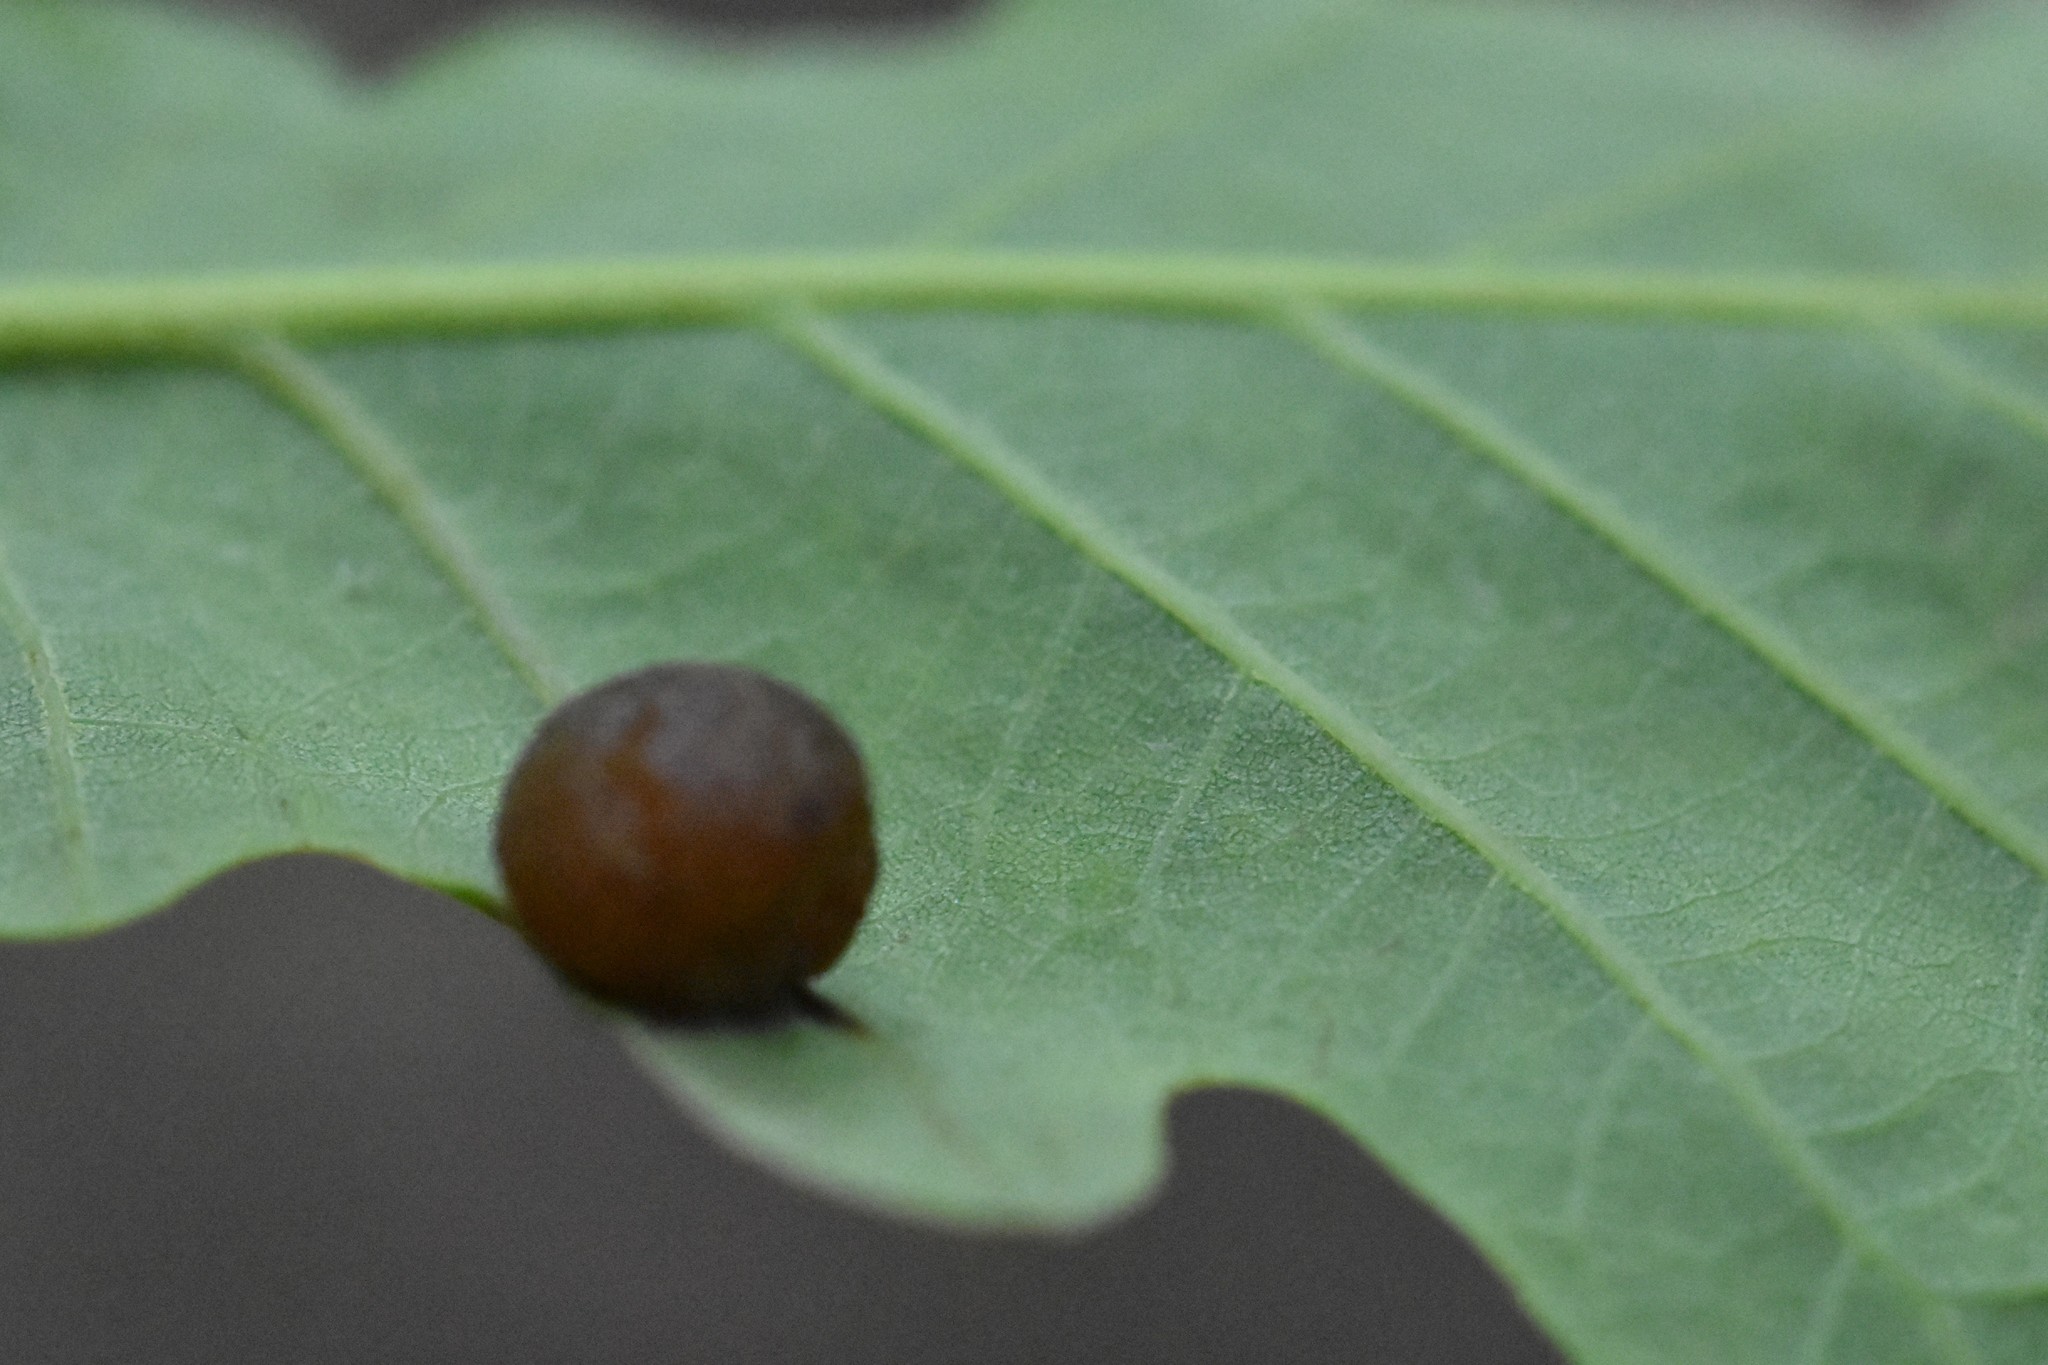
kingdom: Animalia
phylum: Arthropoda
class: Insecta
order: Hymenoptera
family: Cynipidae
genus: Neuroterus
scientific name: Neuroterus quercusbaccarum
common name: Common spangle gall
